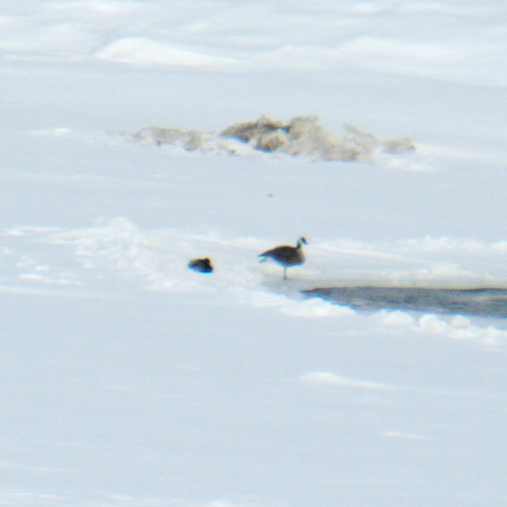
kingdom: Animalia
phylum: Chordata
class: Aves
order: Anseriformes
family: Anatidae
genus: Anas
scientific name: Anas platyrhynchos
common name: Mallard
